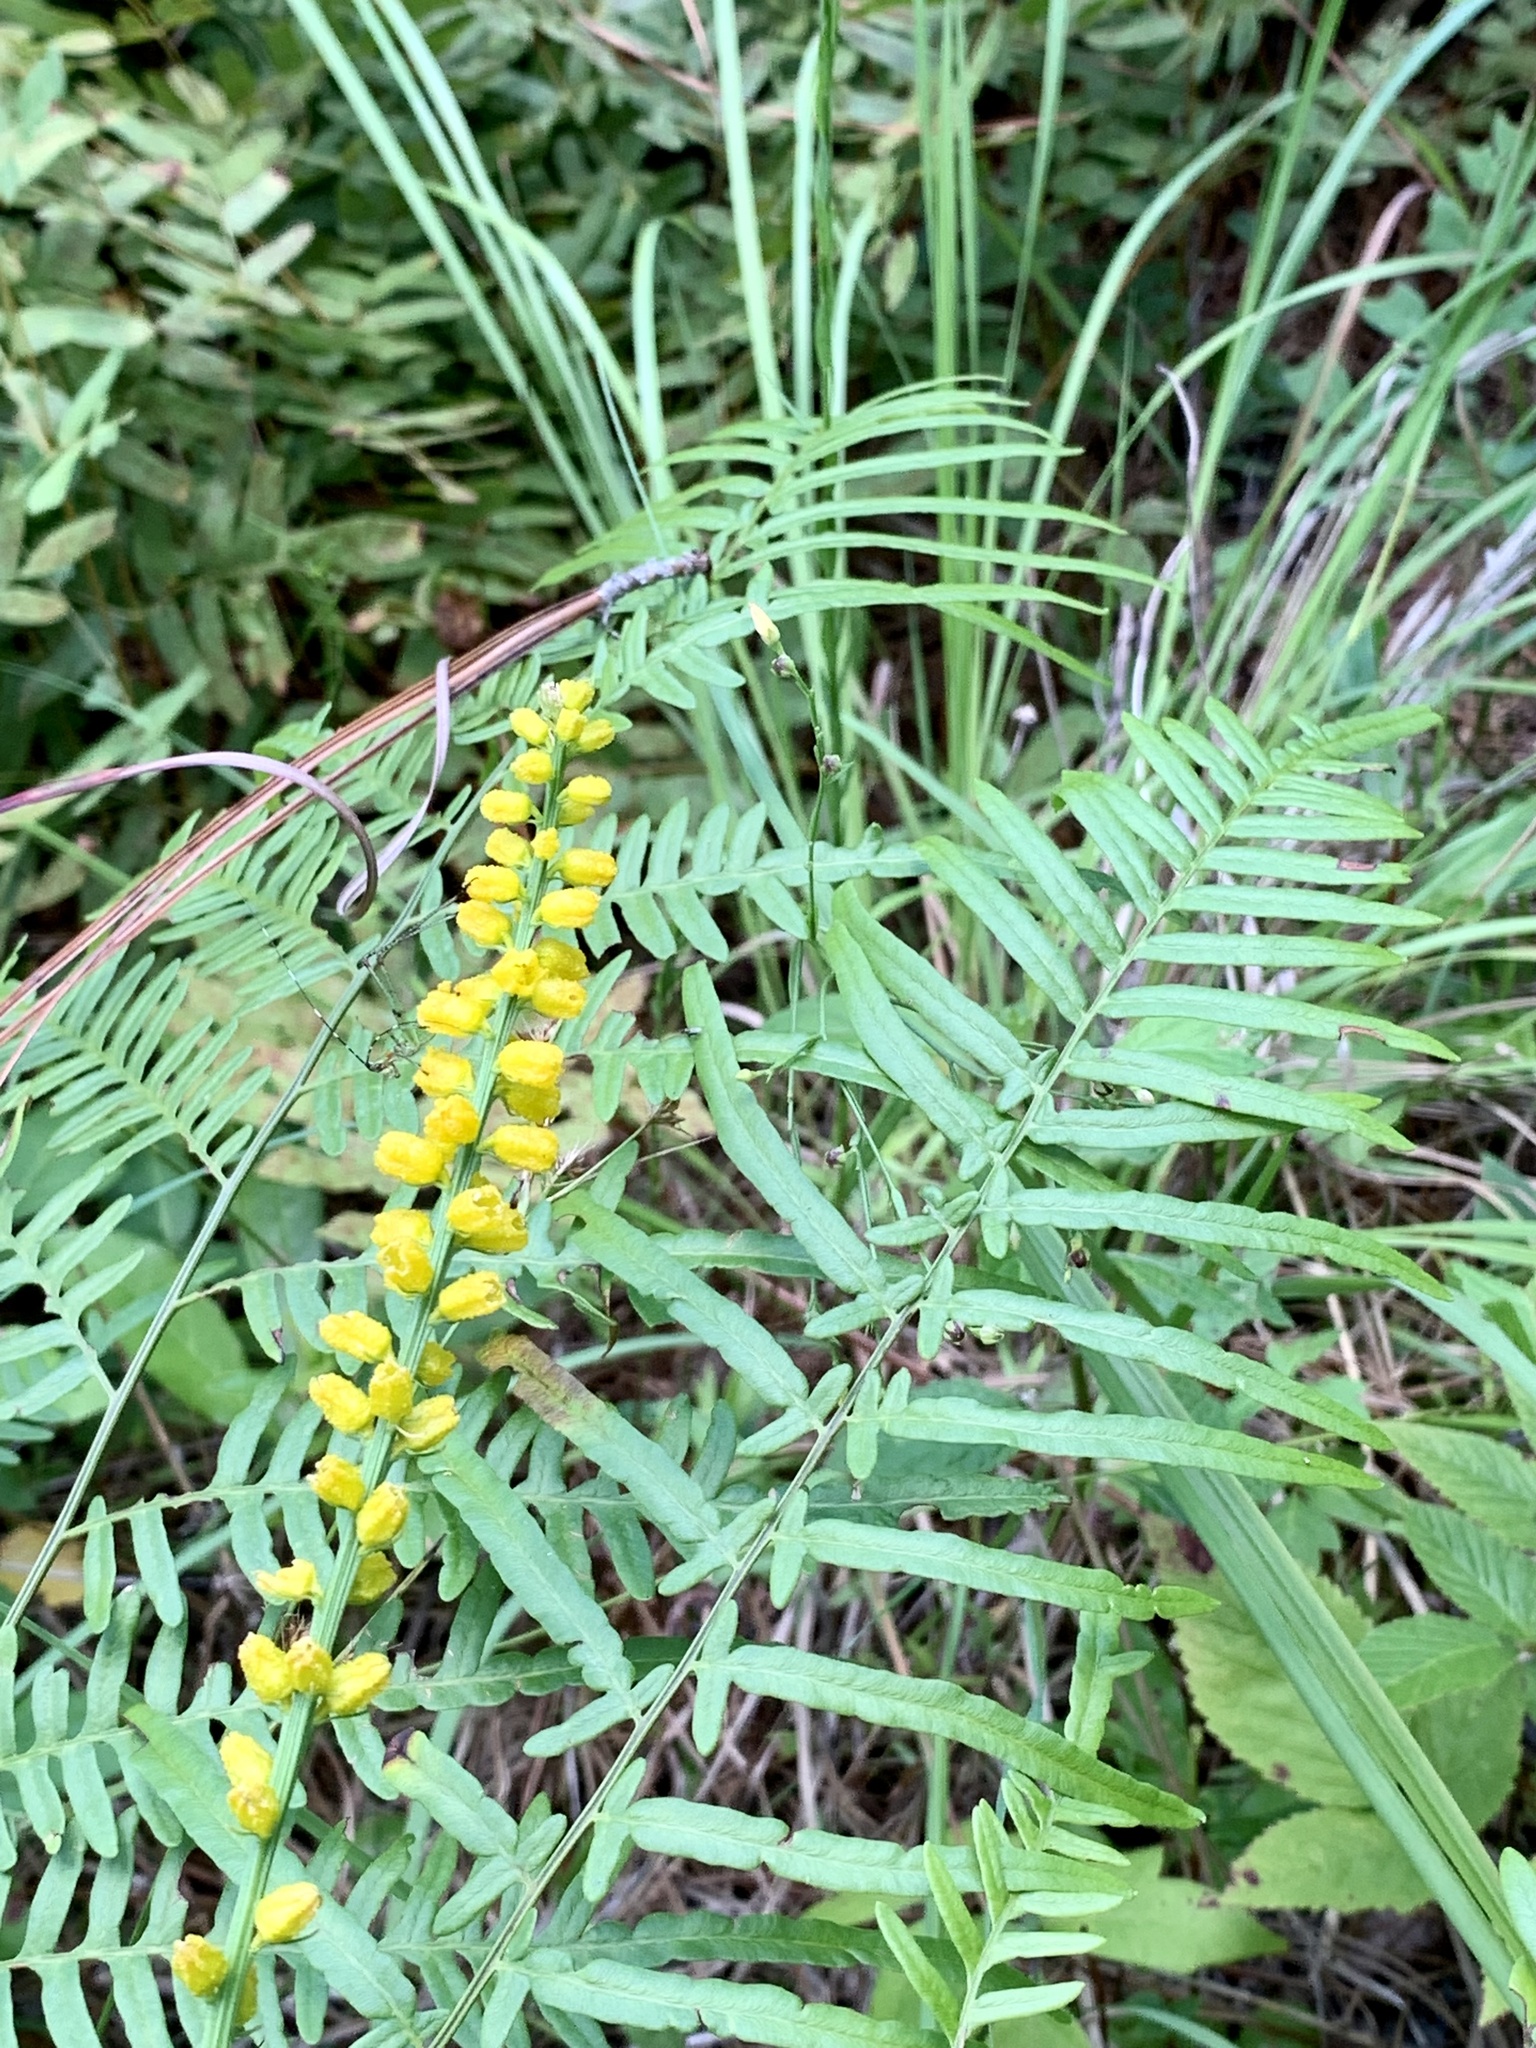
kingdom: Plantae
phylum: Tracheophyta
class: Liliopsida
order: Dioscoreales
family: Nartheciaceae
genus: Aletris
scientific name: Aletris aurea
